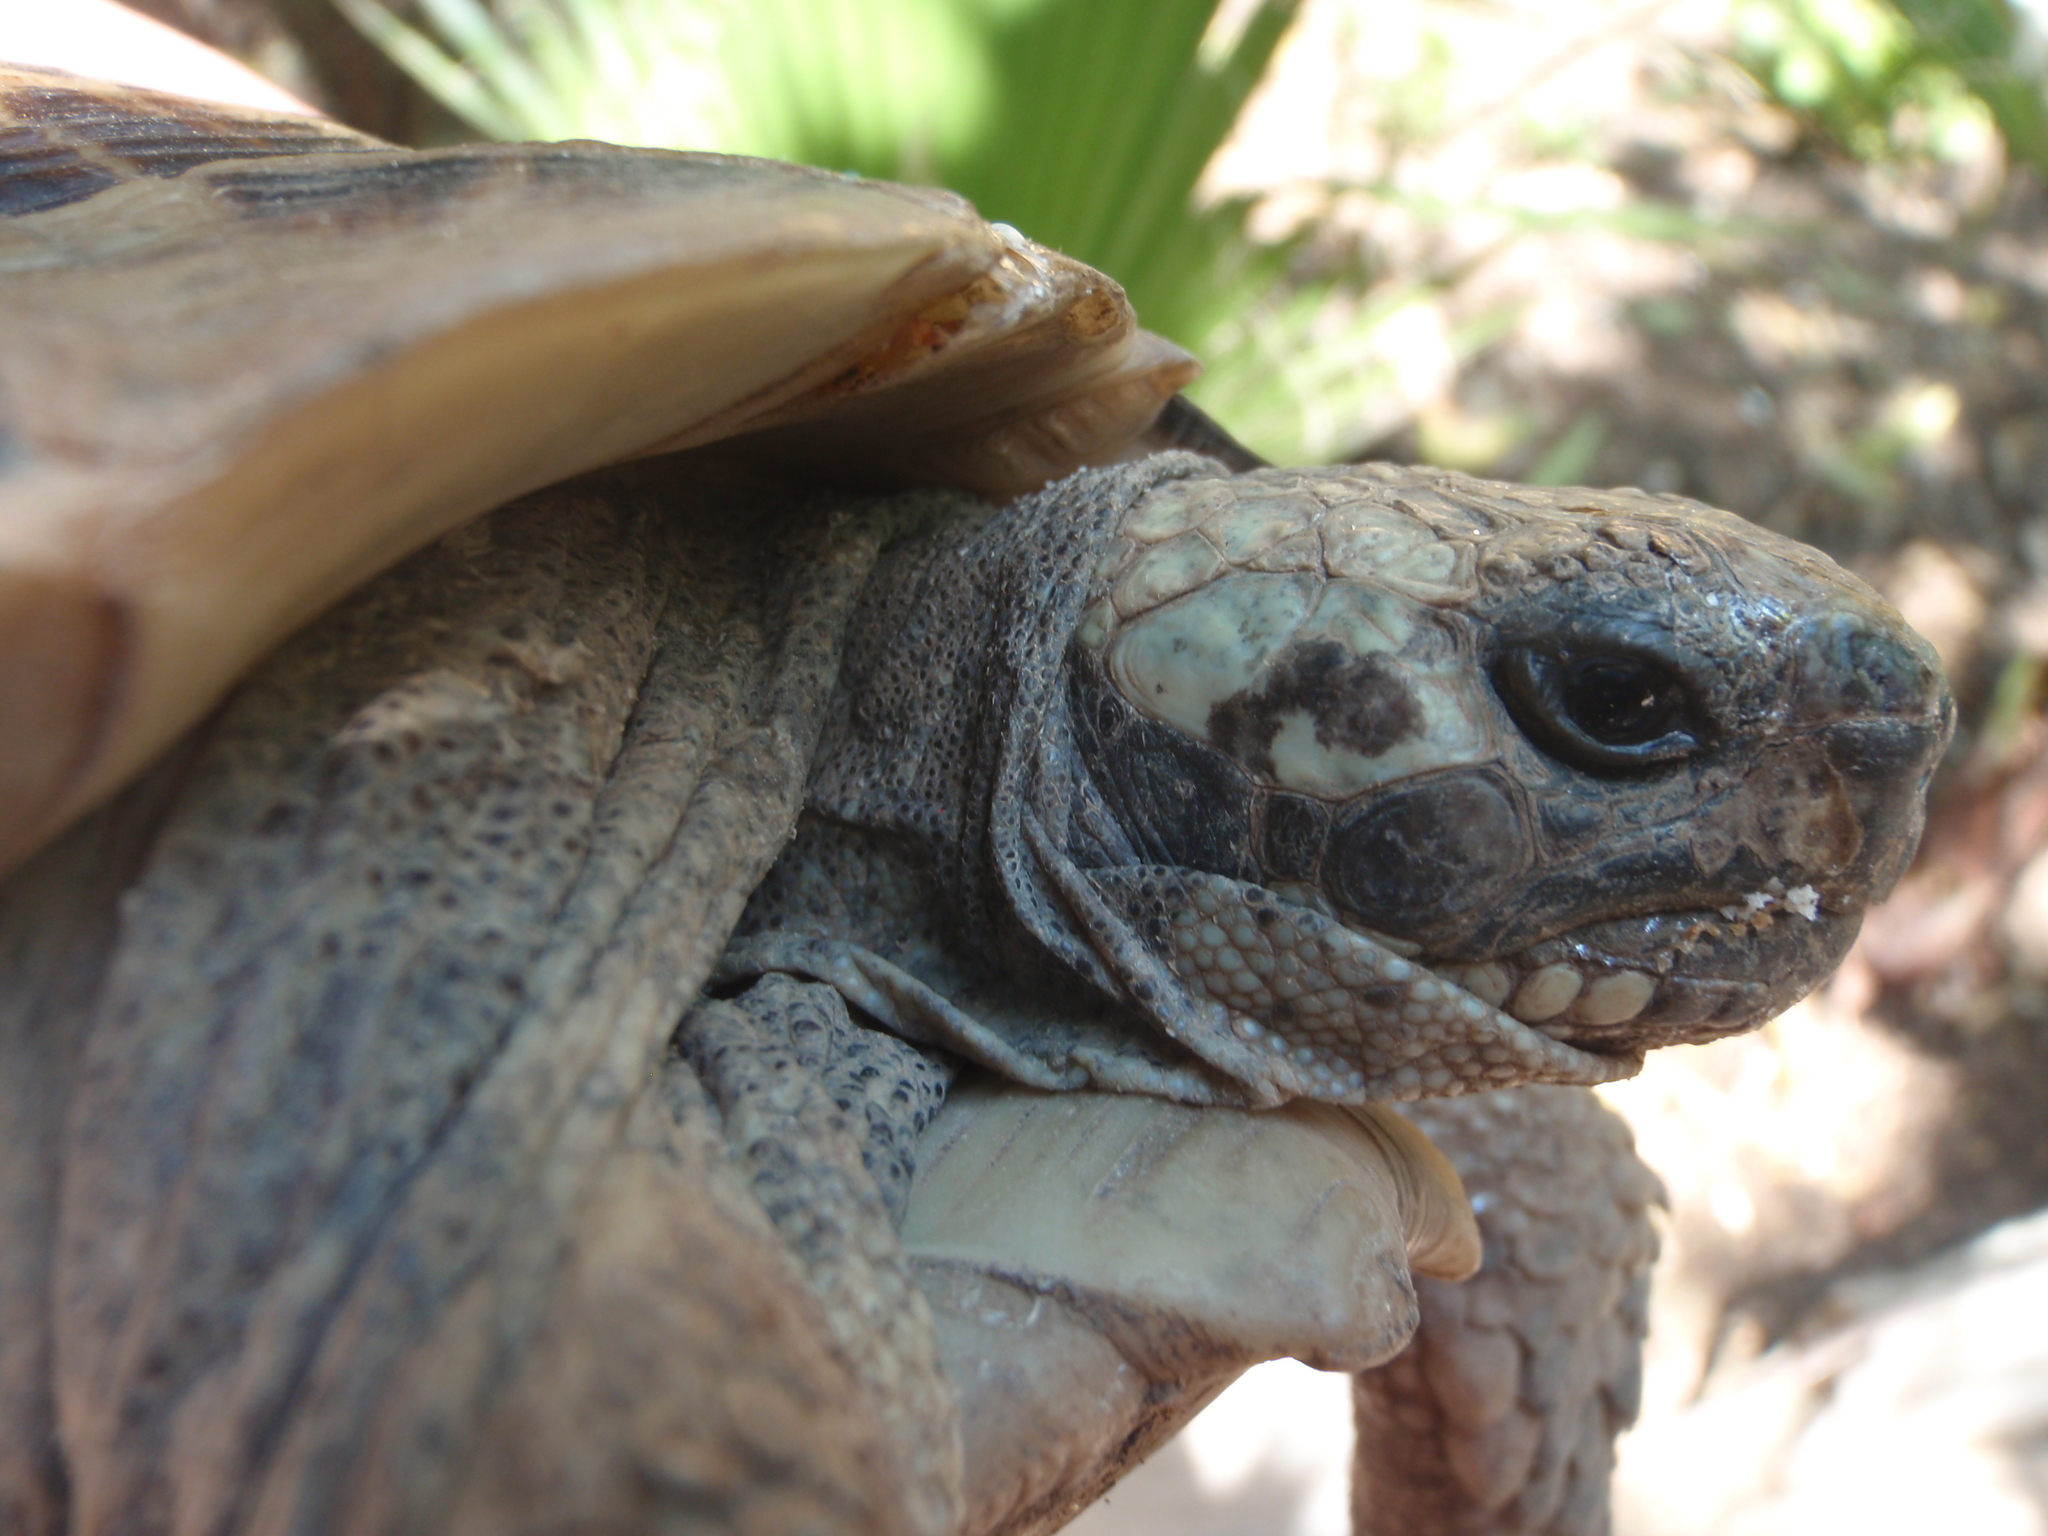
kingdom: Animalia
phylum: Chordata
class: Testudines
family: Testudinidae
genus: Testudo
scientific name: Testudo graeca
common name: Common tortoise
